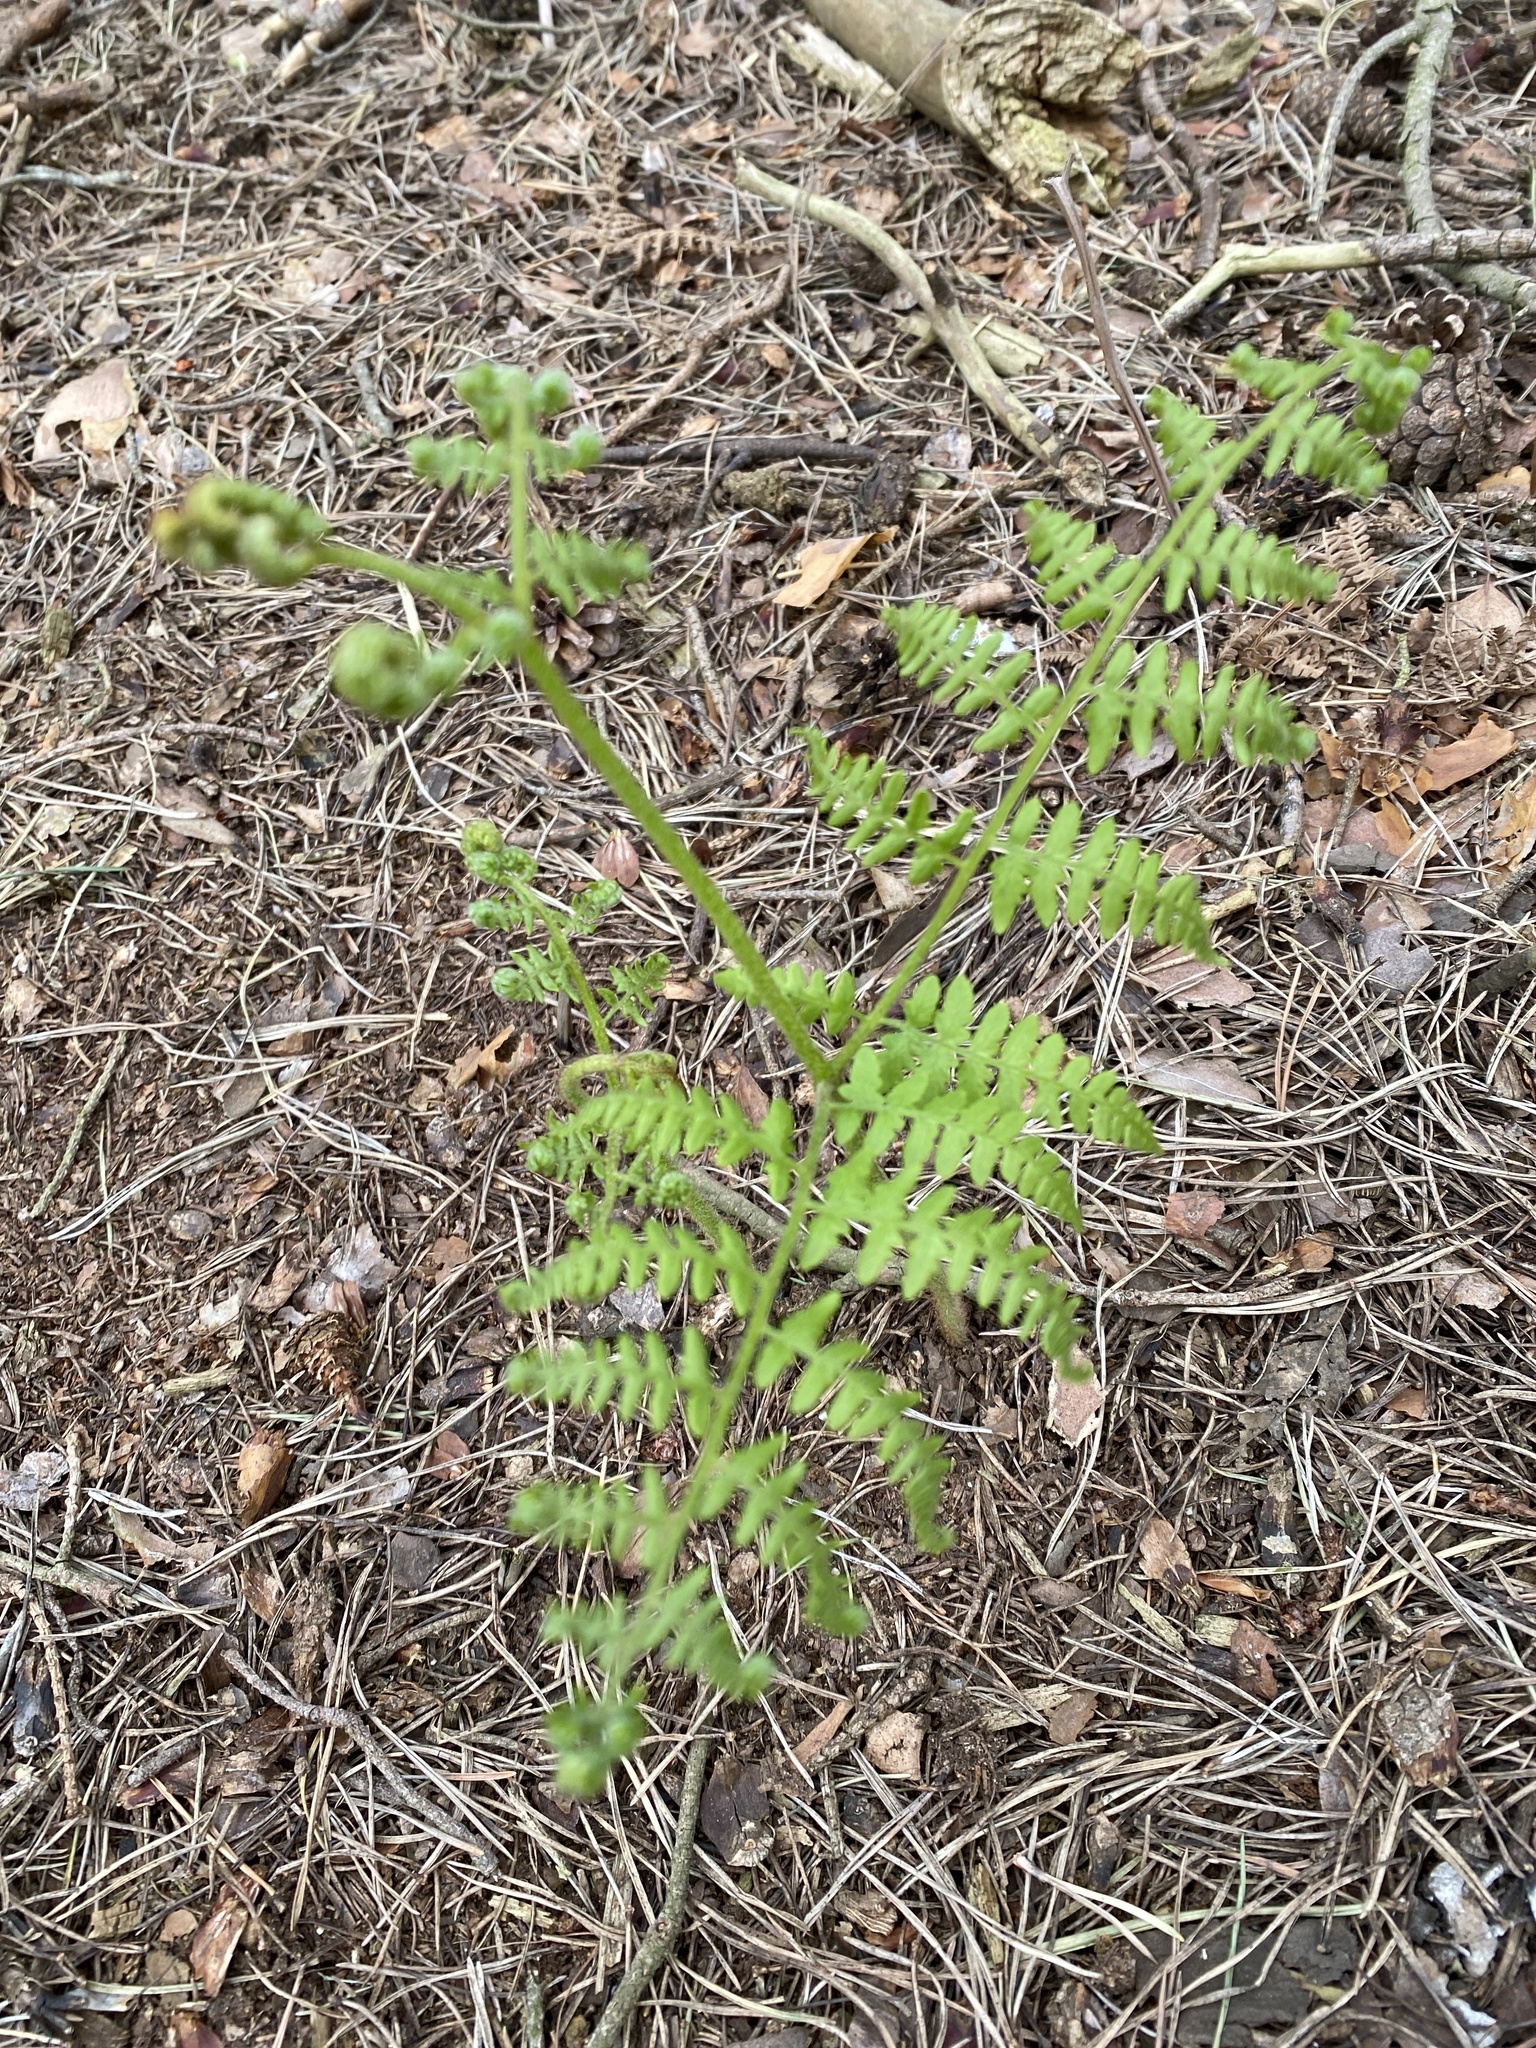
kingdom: Plantae
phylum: Tracheophyta
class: Polypodiopsida
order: Polypodiales
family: Dennstaedtiaceae
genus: Pteridium
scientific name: Pteridium aquilinum
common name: Bracken
